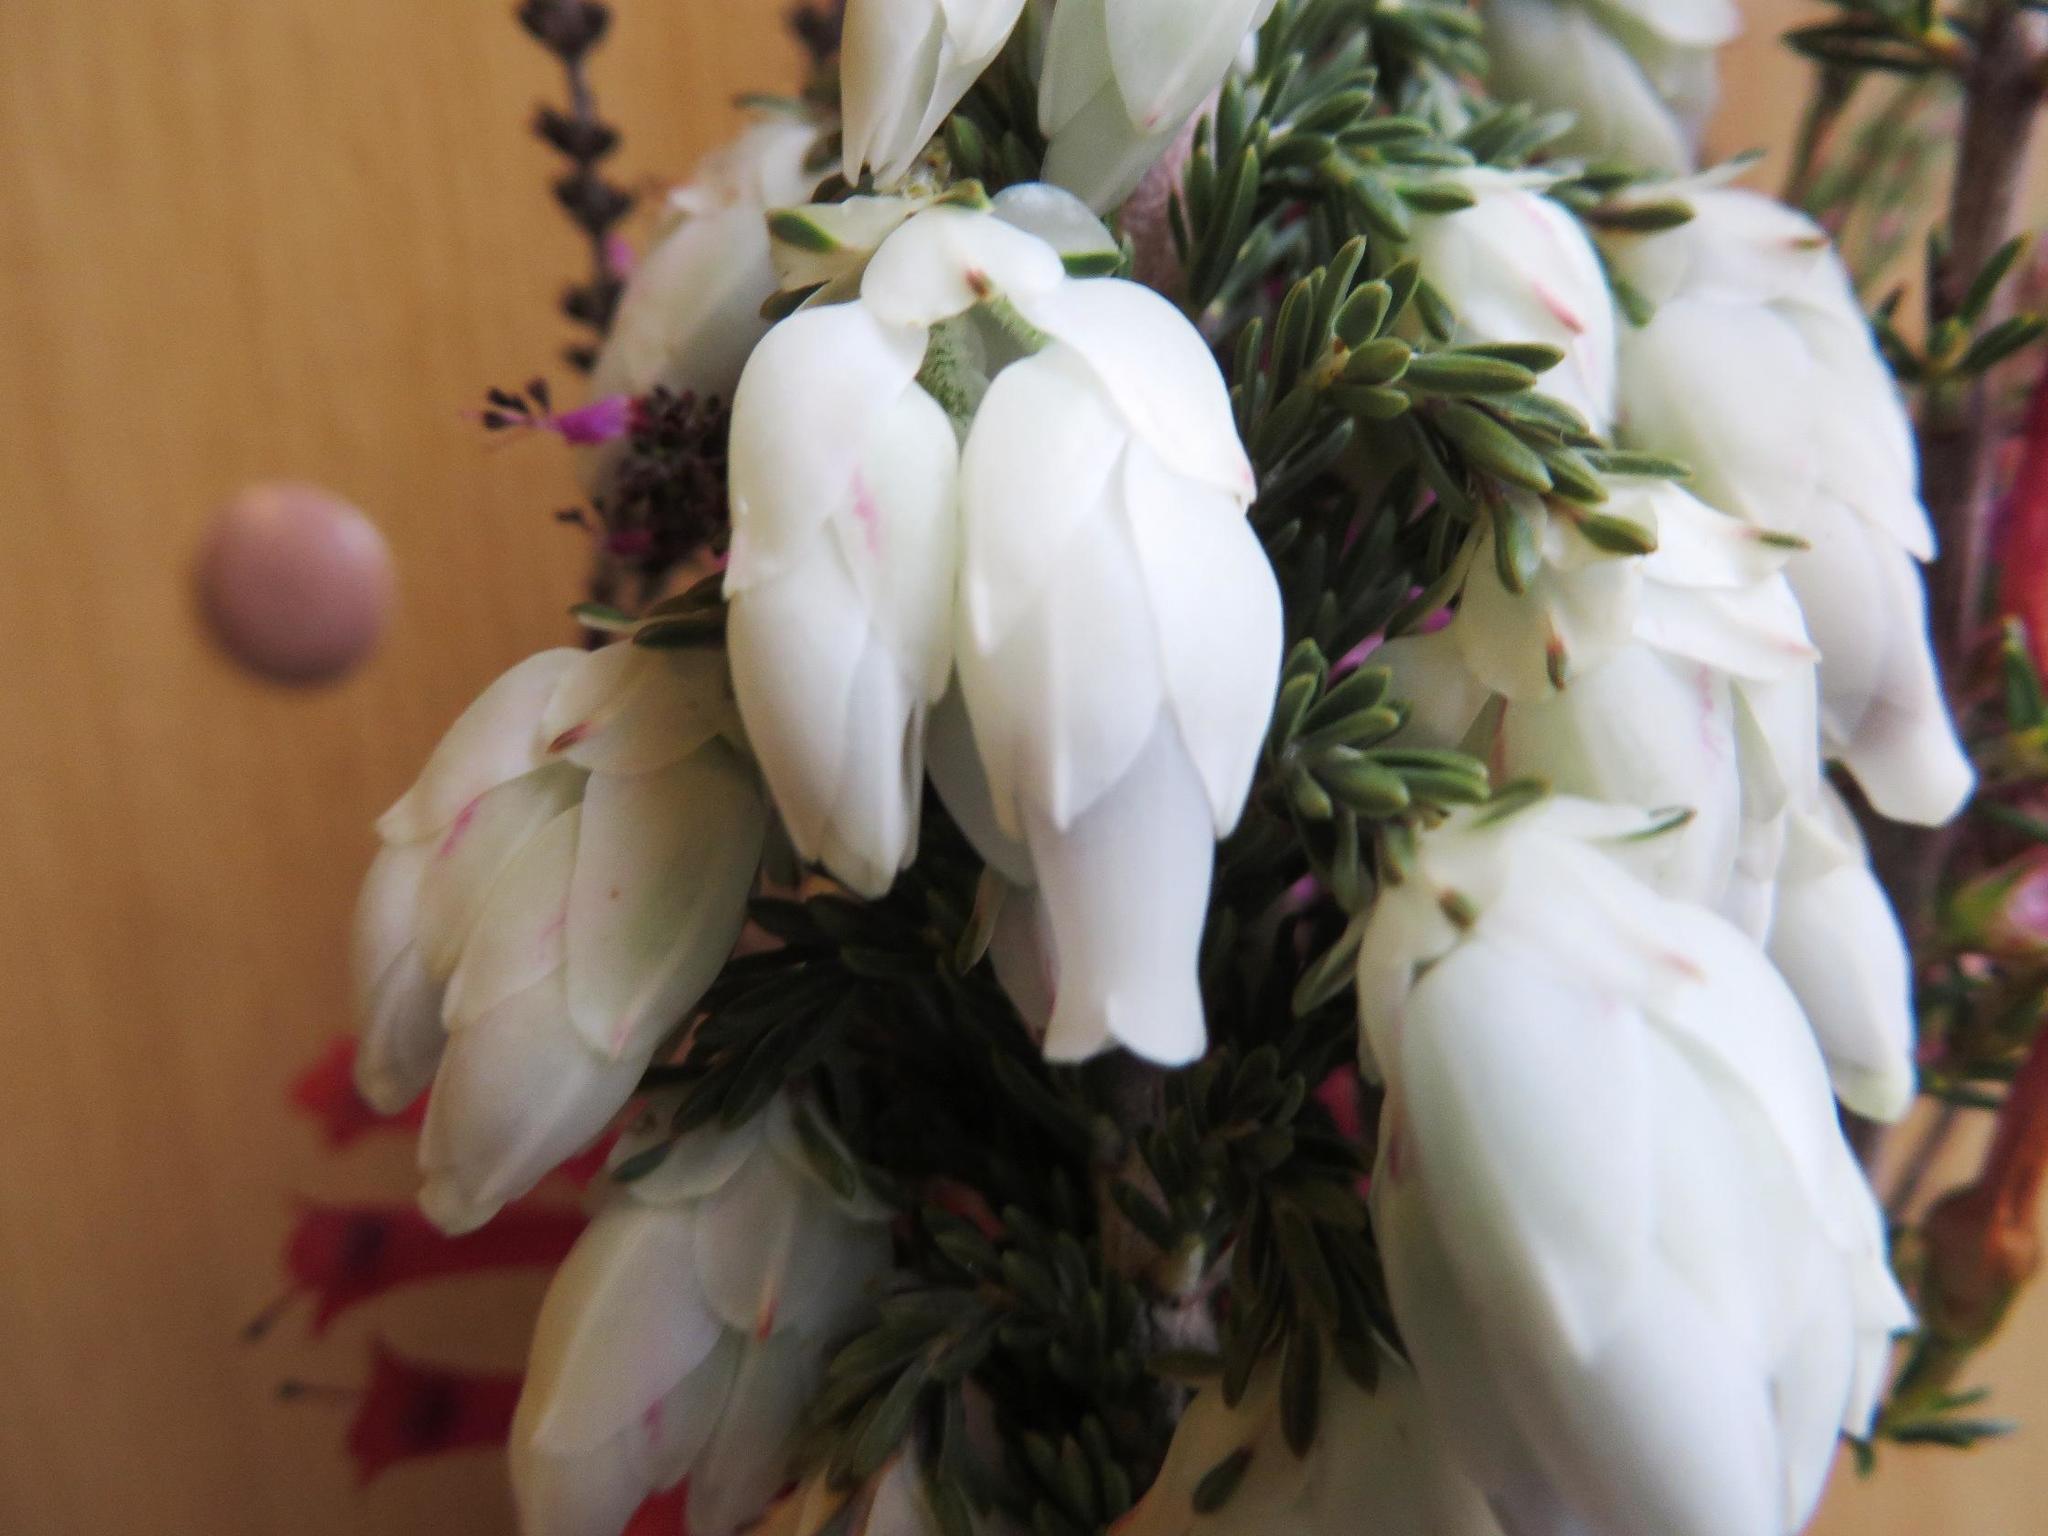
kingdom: Plantae
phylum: Tracheophyta
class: Magnoliopsida
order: Ericales
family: Ericaceae
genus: Erica
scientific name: Erica monsoniana
